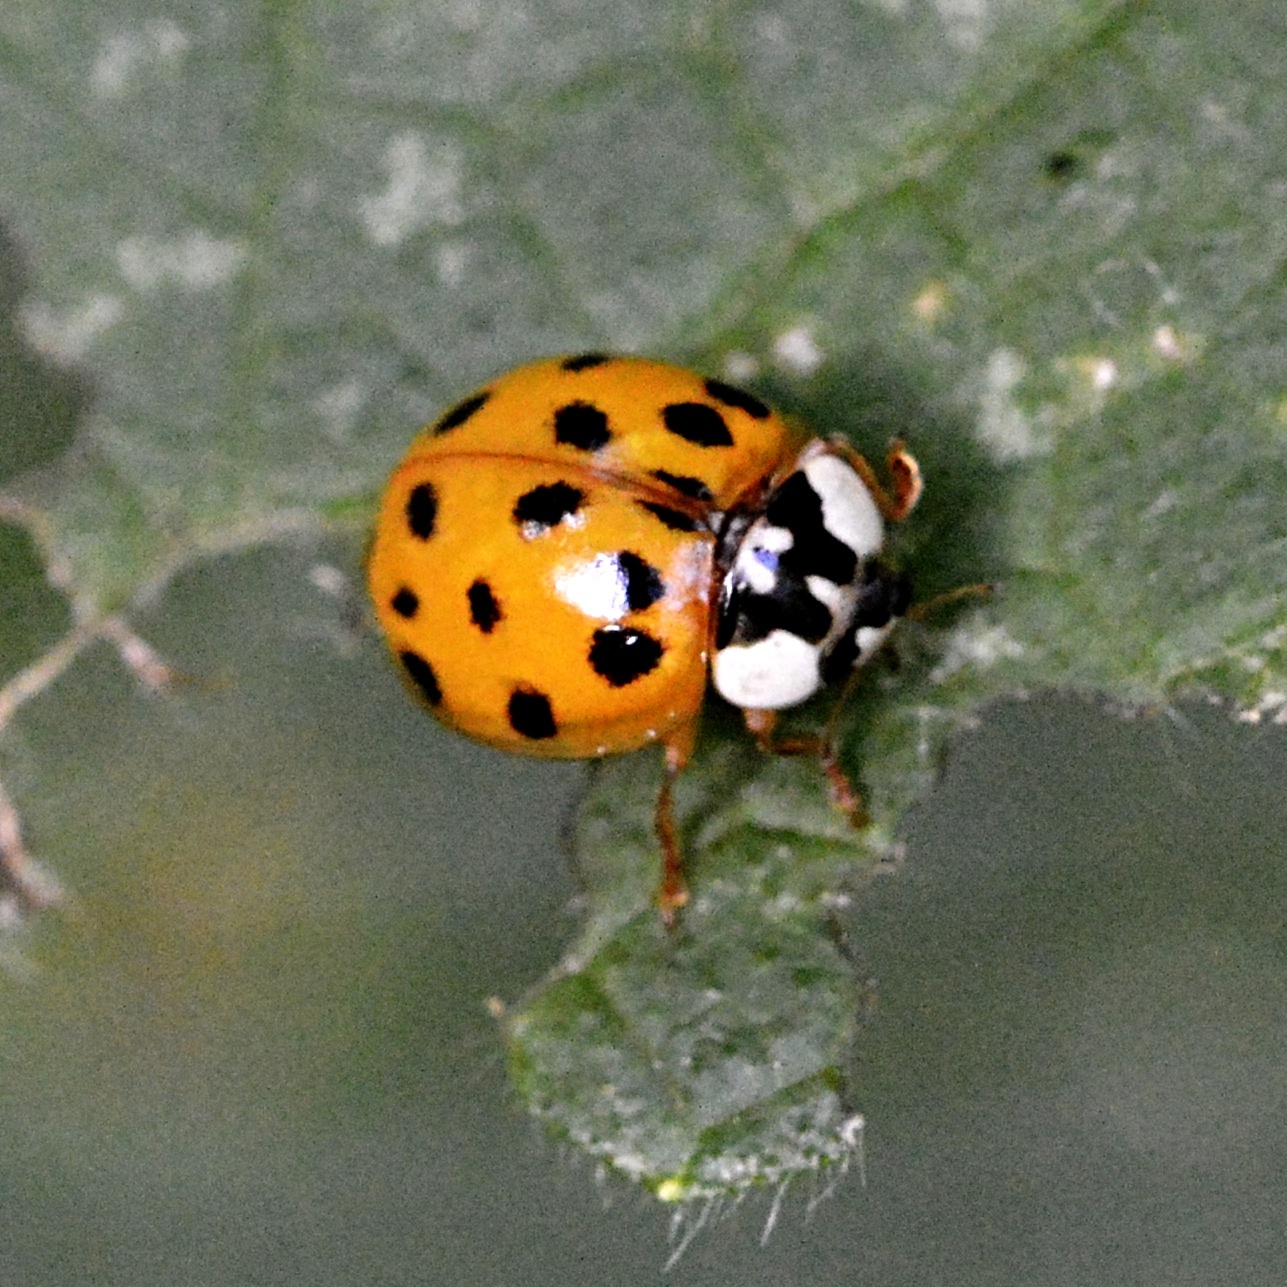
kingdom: Animalia
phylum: Arthropoda
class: Insecta
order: Coleoptera
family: Coccinellidae
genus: Harmonia
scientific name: Harmonia axyridis
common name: Harlequin ladybird
